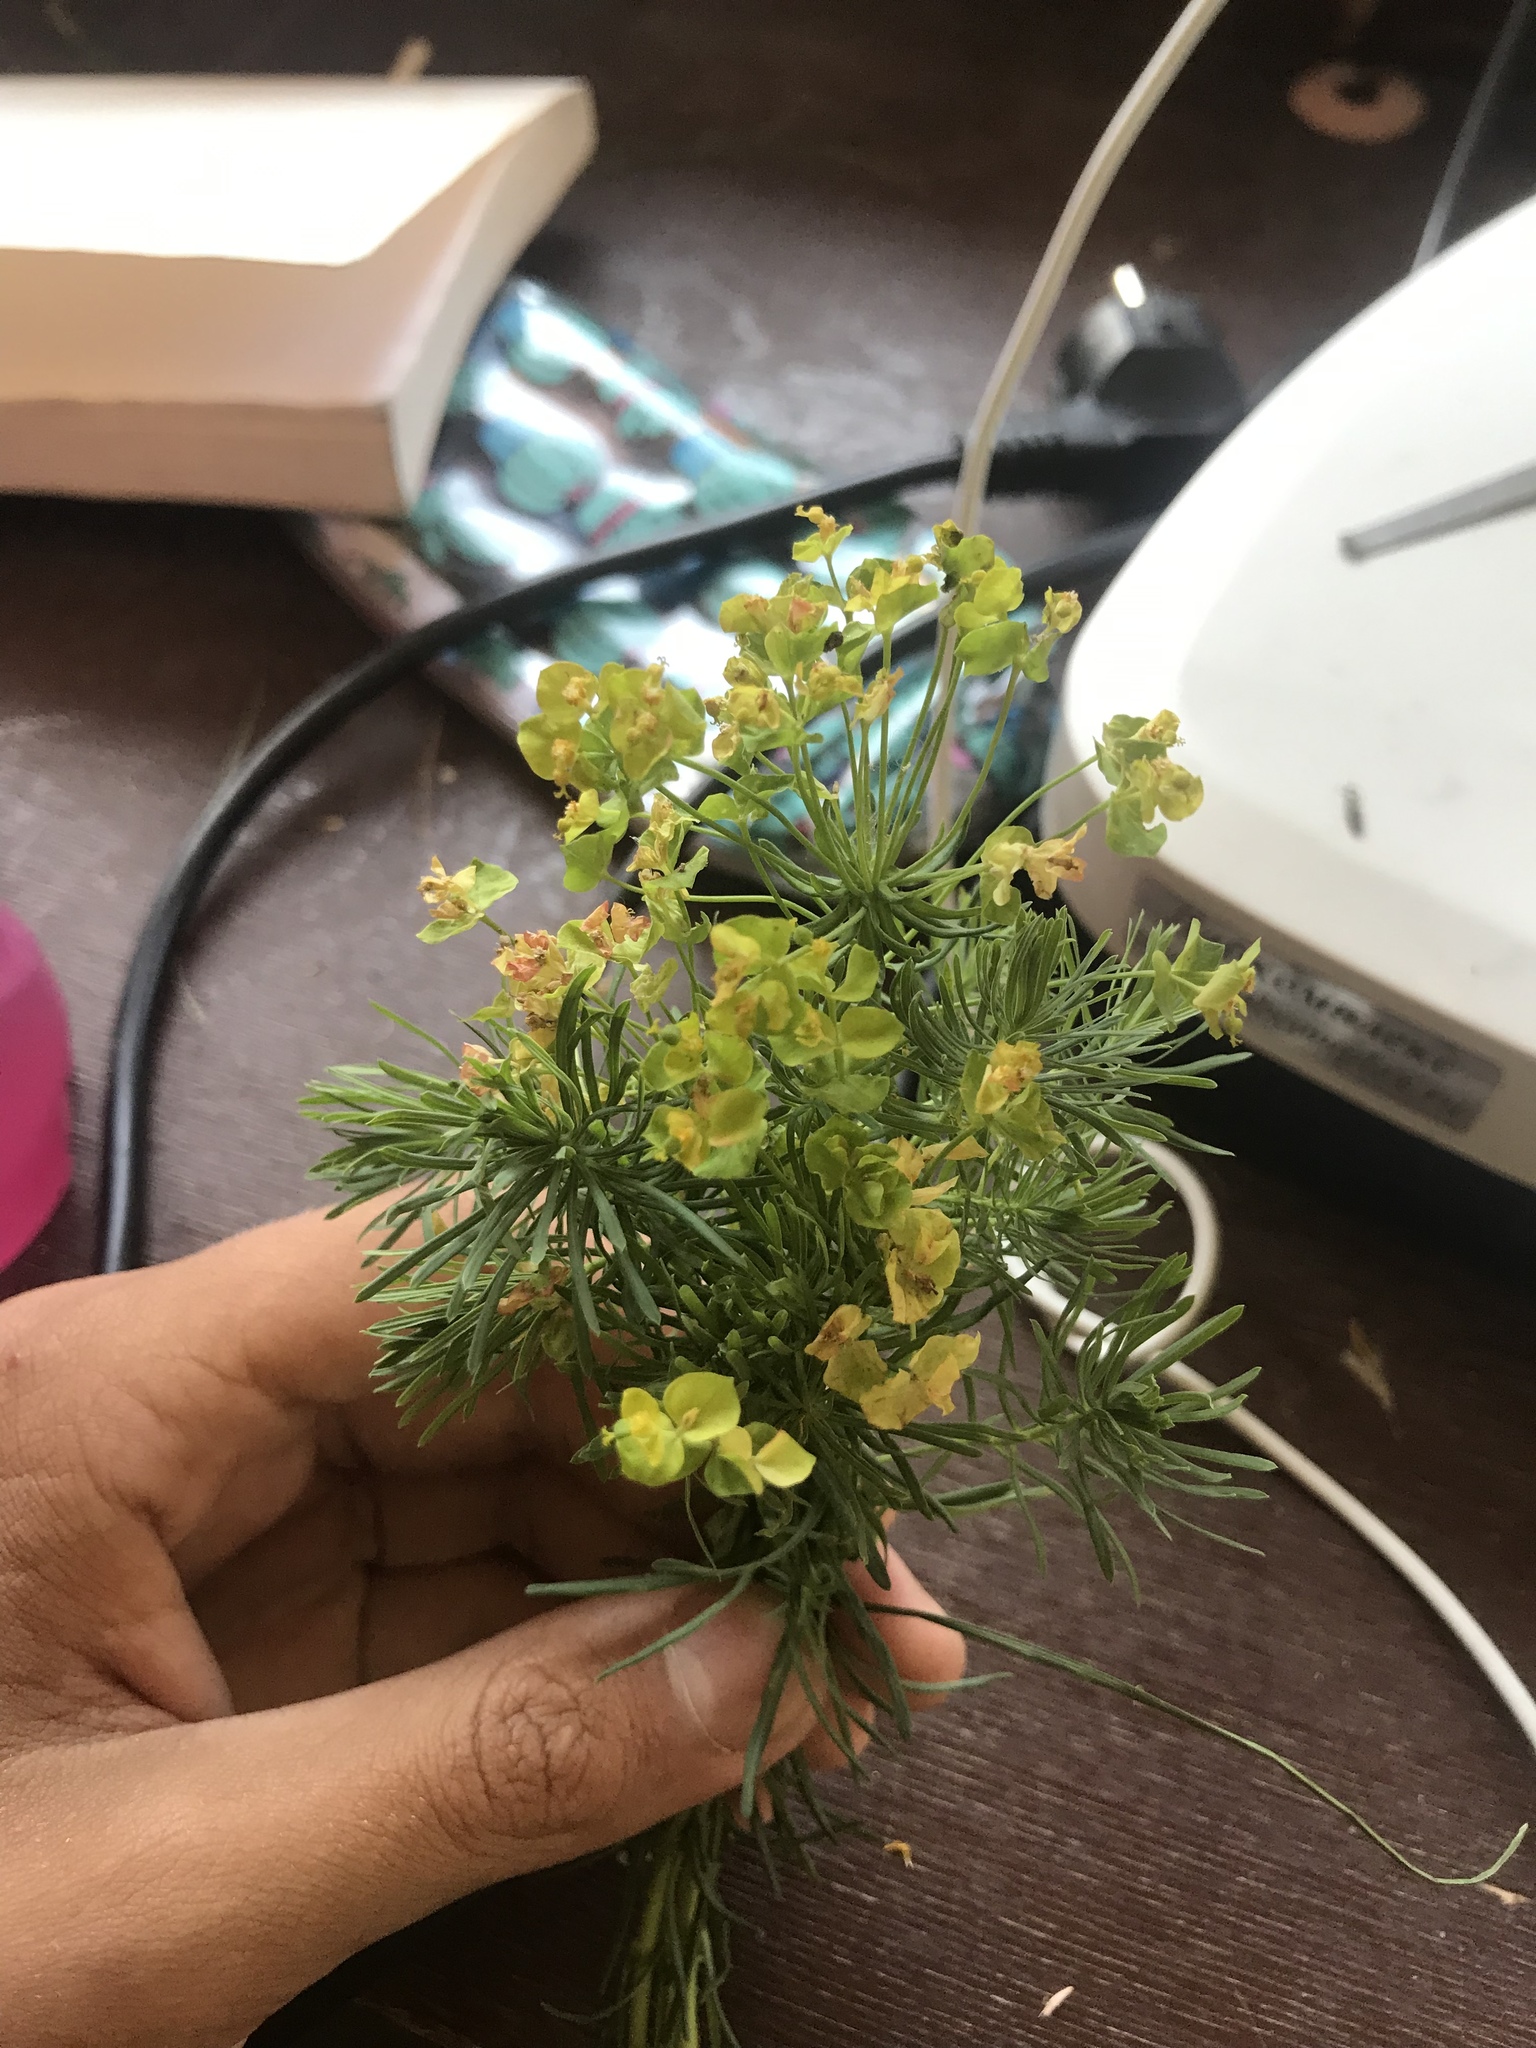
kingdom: Plantae
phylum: Tracheophyta
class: Magnoliopsida
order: Malpighiales
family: Euphorbiaceae
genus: Euphorbia
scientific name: Euphorbia cyparissias
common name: Cypress spurge
